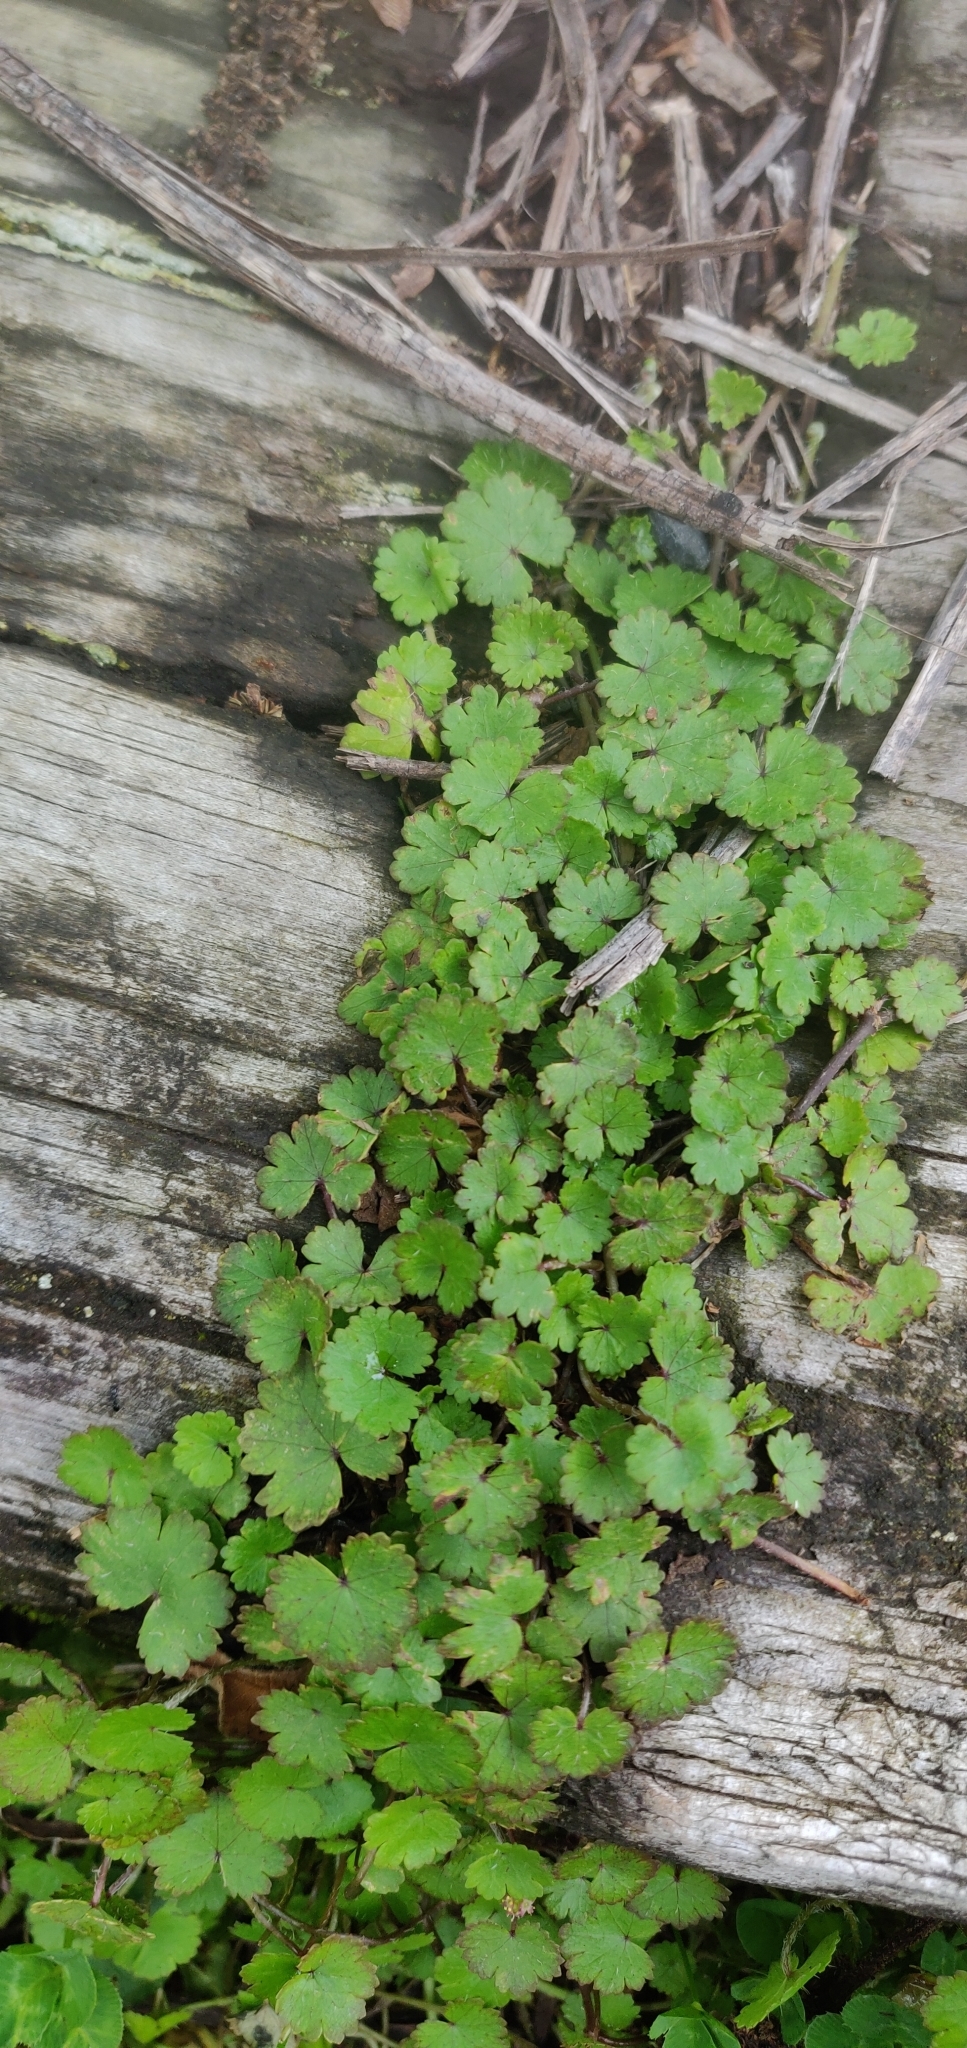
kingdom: Plantae
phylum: Tracheophyta
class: Magnoliopsida
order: Apiales
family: Araliaceae
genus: Hydrocotyle
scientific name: Hydrocotyle moschata
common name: Hairy pennywort
